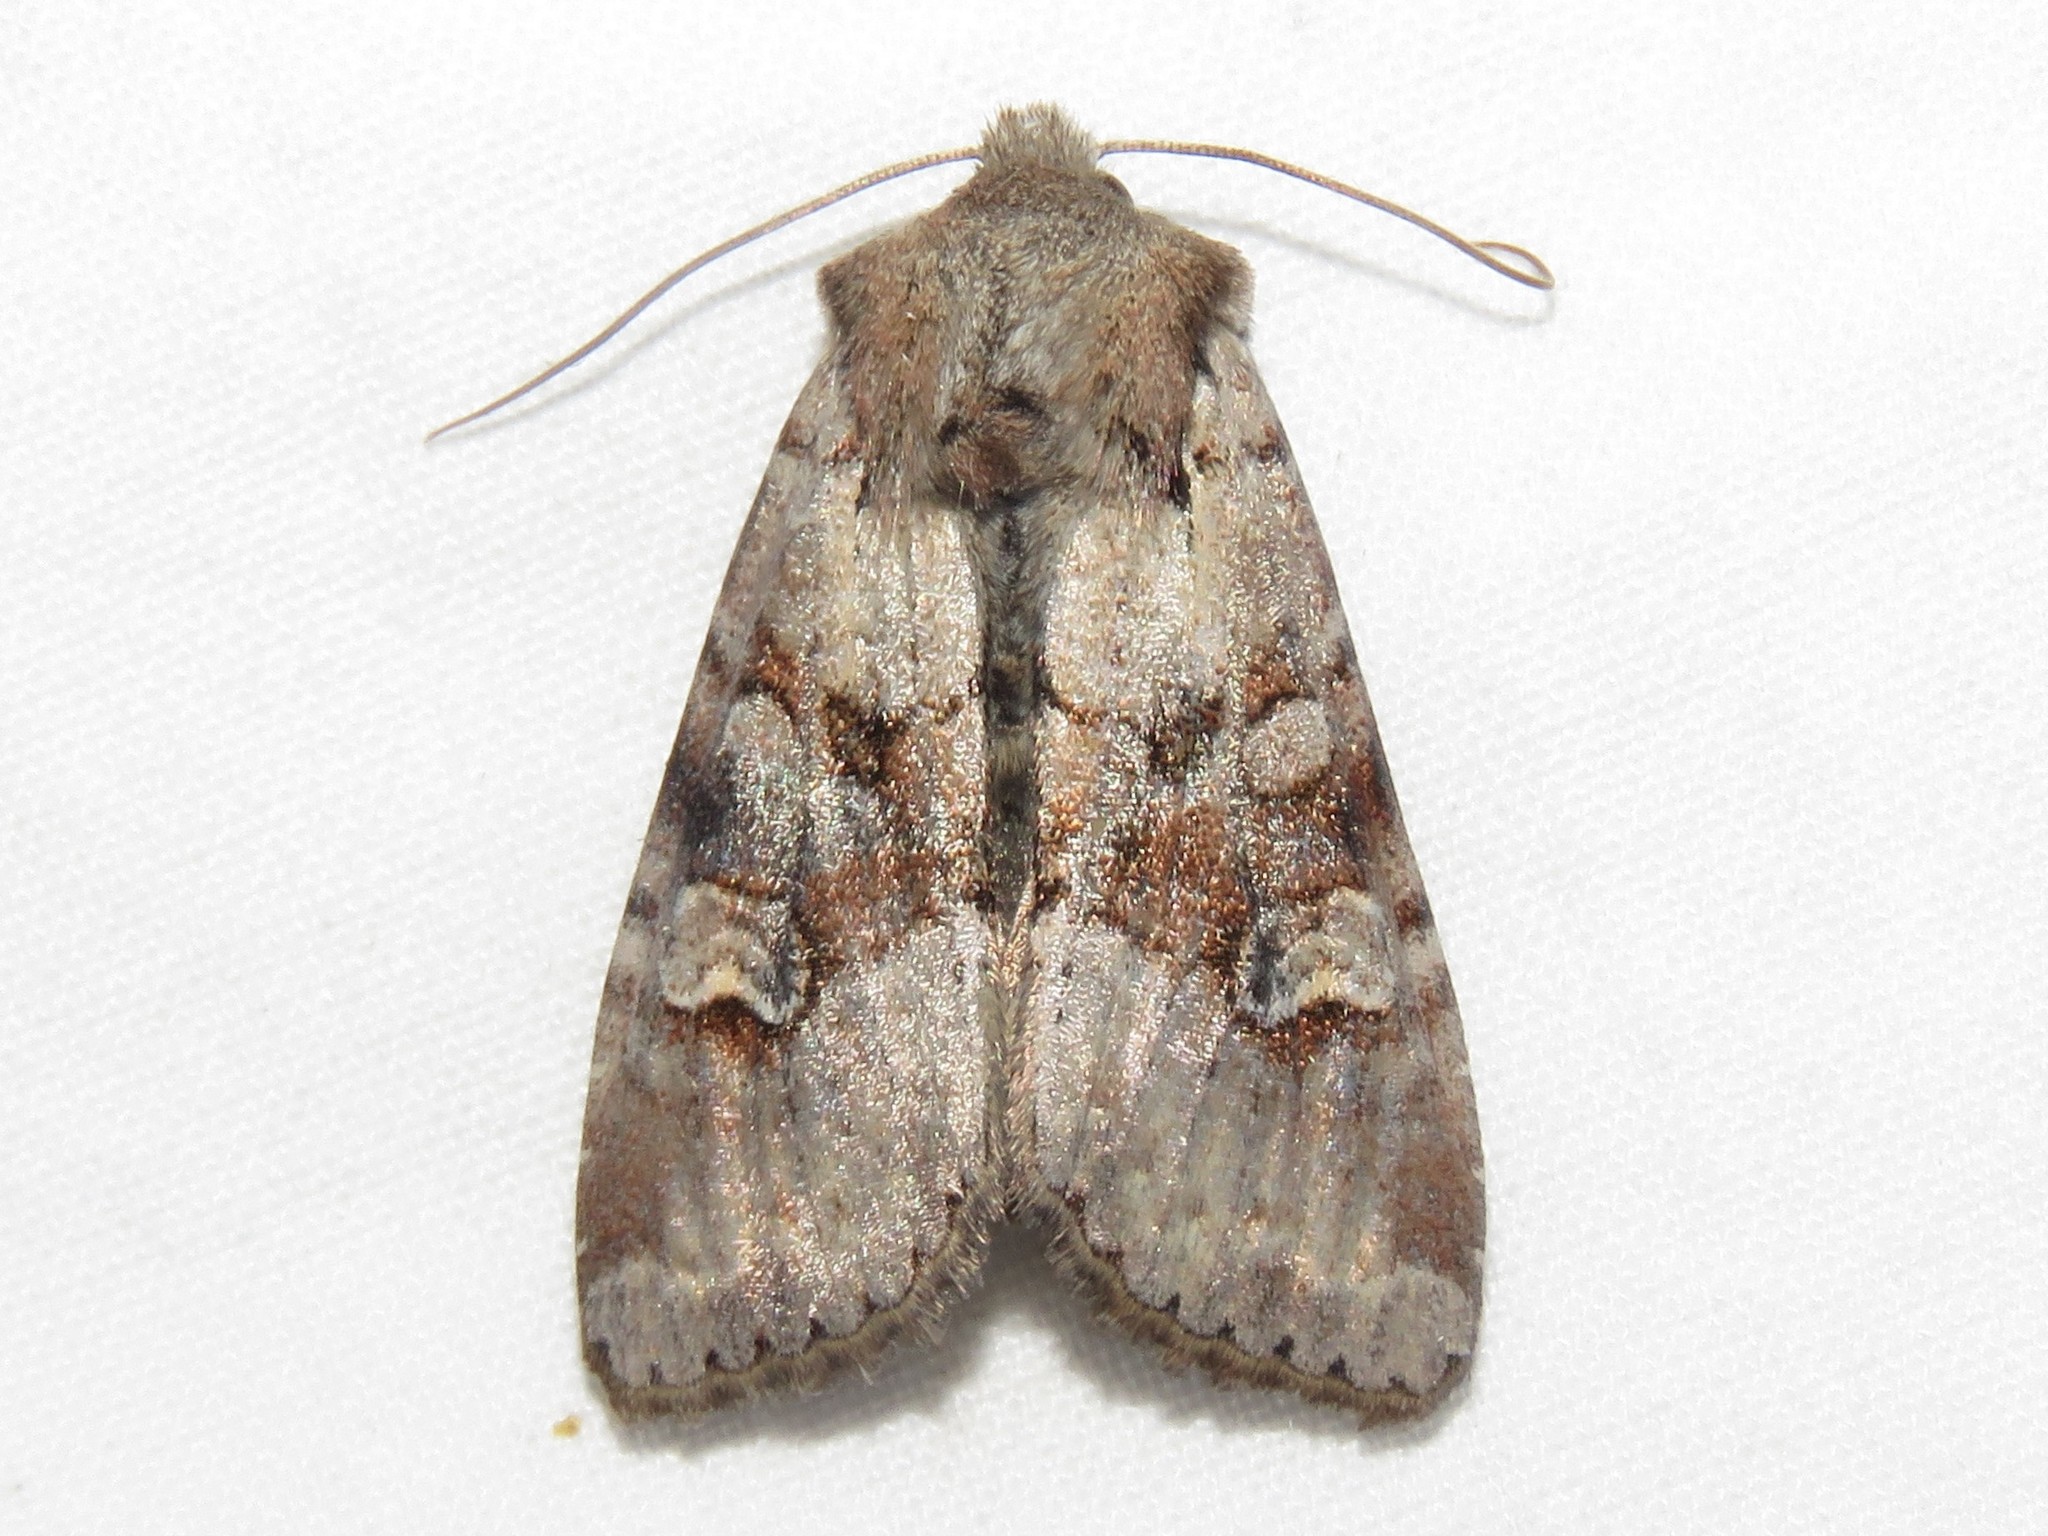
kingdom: Animalia
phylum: Arthropoda
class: Insecta
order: Lepidoptera
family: Noctuidae
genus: Apamea
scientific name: Apamea sordens
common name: Rustic shoulder-knot
